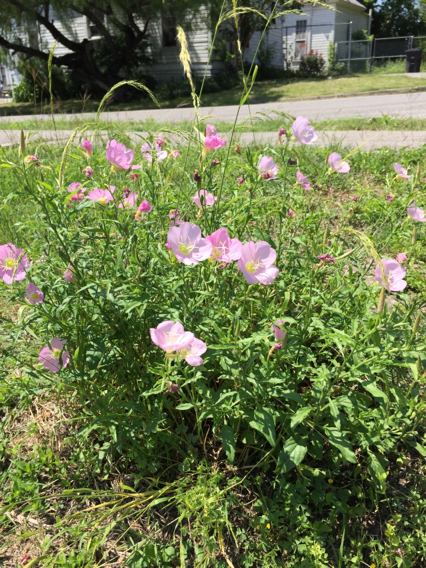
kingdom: Plantae
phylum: Tracheophyta
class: Magnoliopsida
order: Myrtales
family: Onagraceae
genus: Oenothera
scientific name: Oenothera speciosa
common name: White evening-primrose
